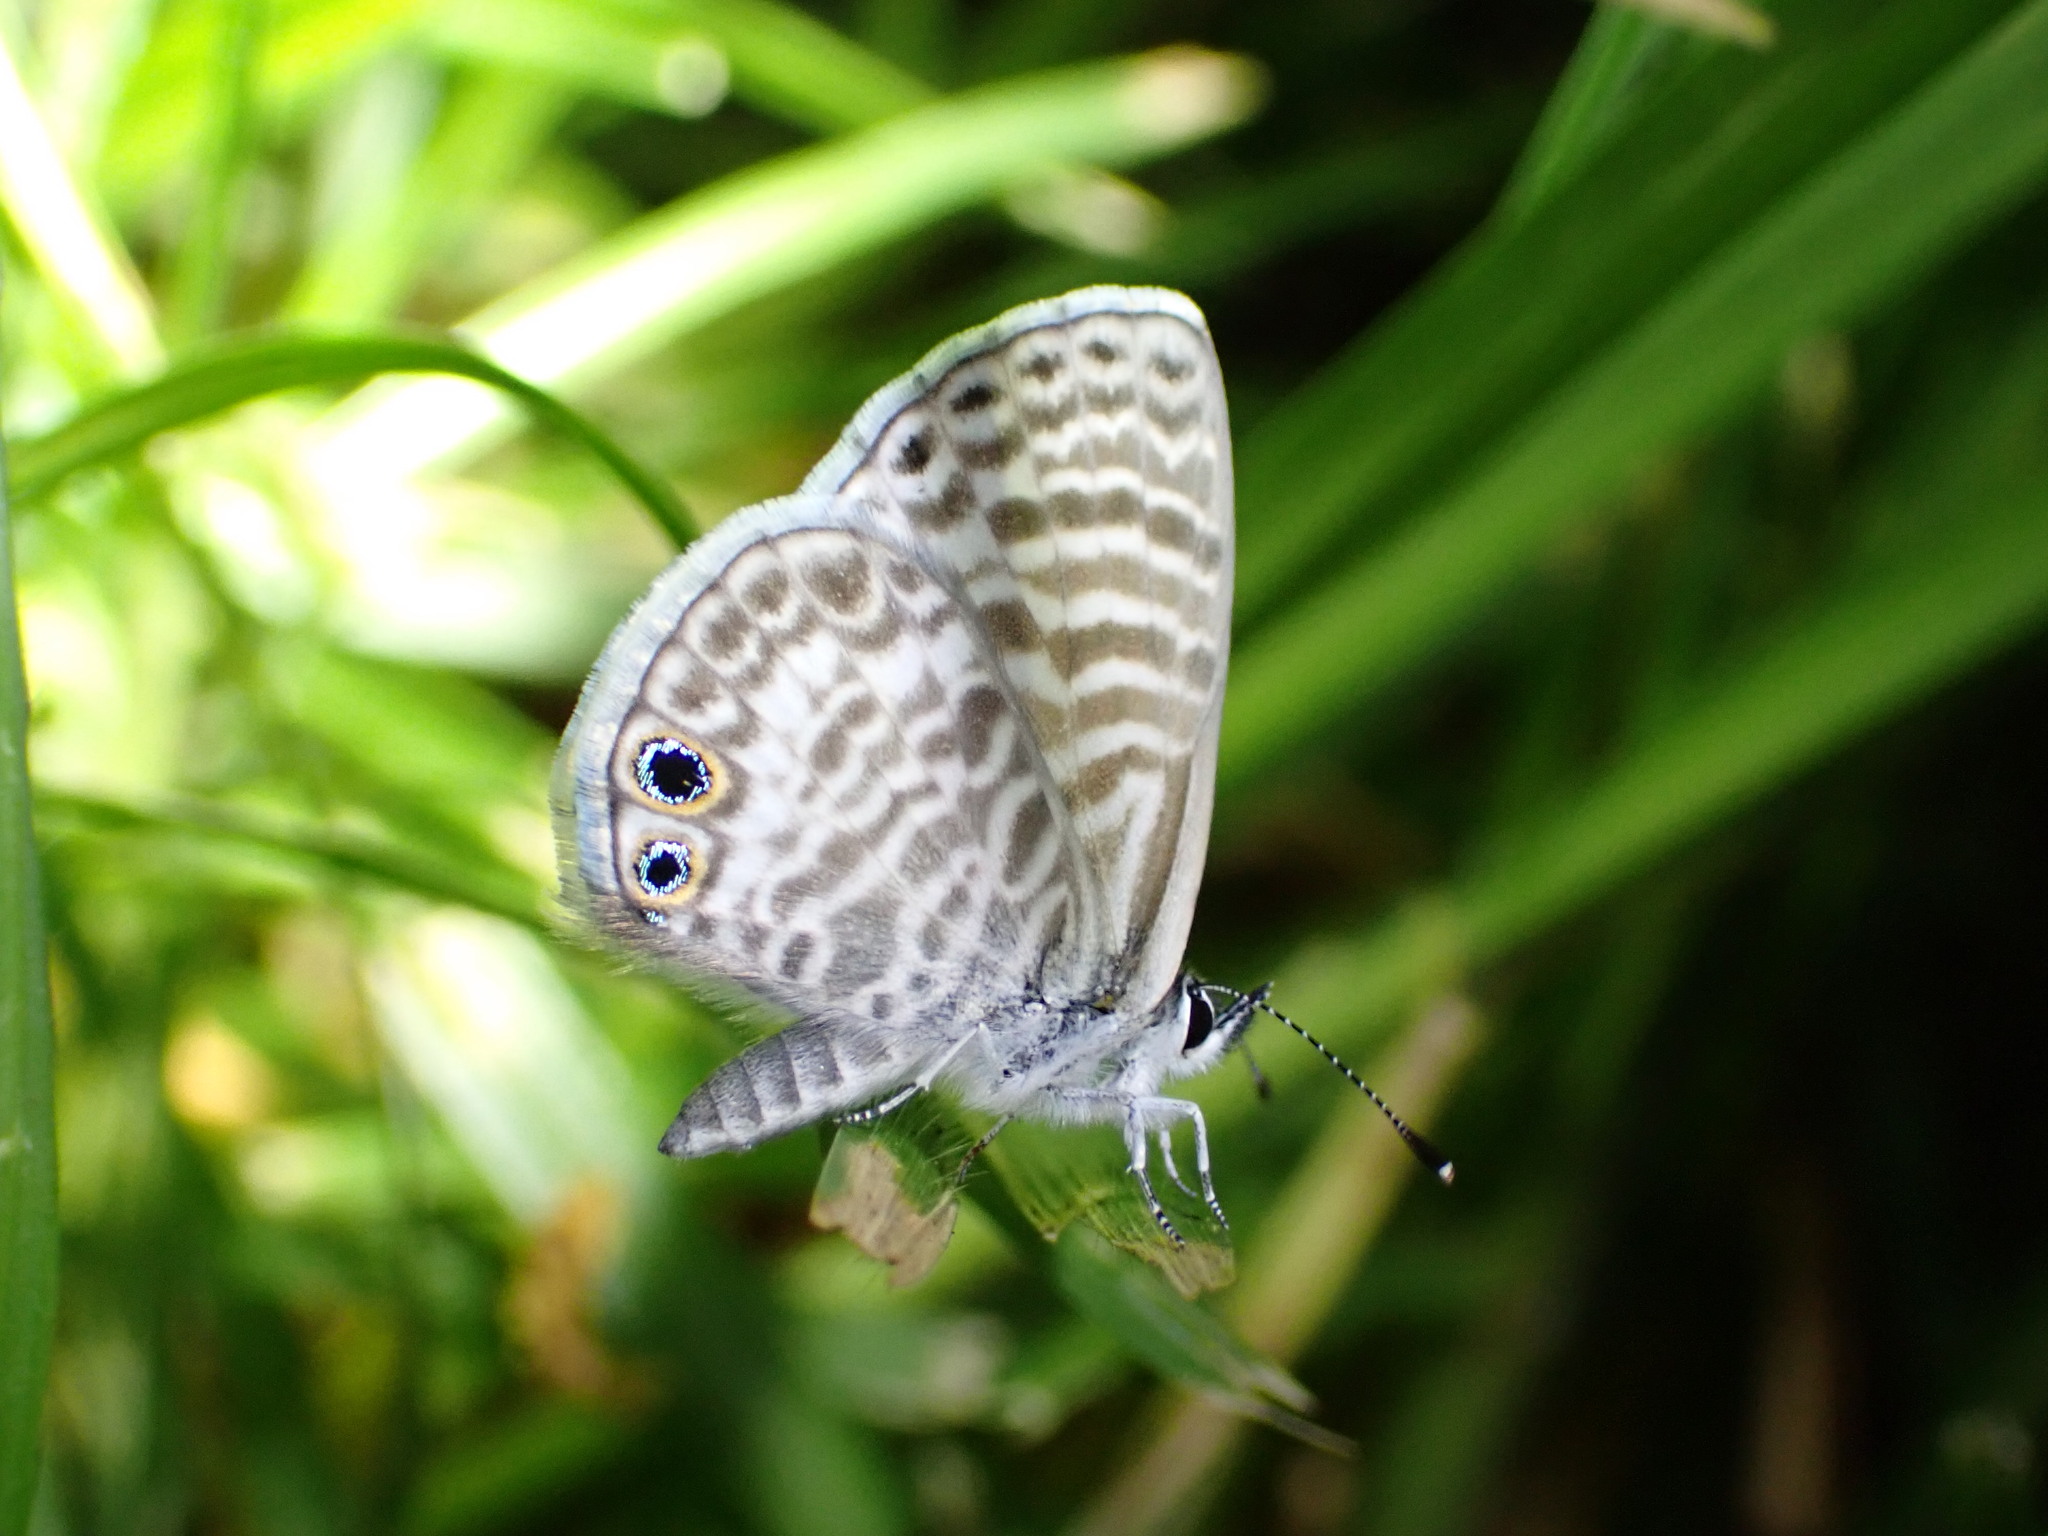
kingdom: Animalia
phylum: Arthropoda
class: Insecta
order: Lepidoptera
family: Lycaenidae
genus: Leptotes
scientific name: Leptotes marina
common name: Marine blue
